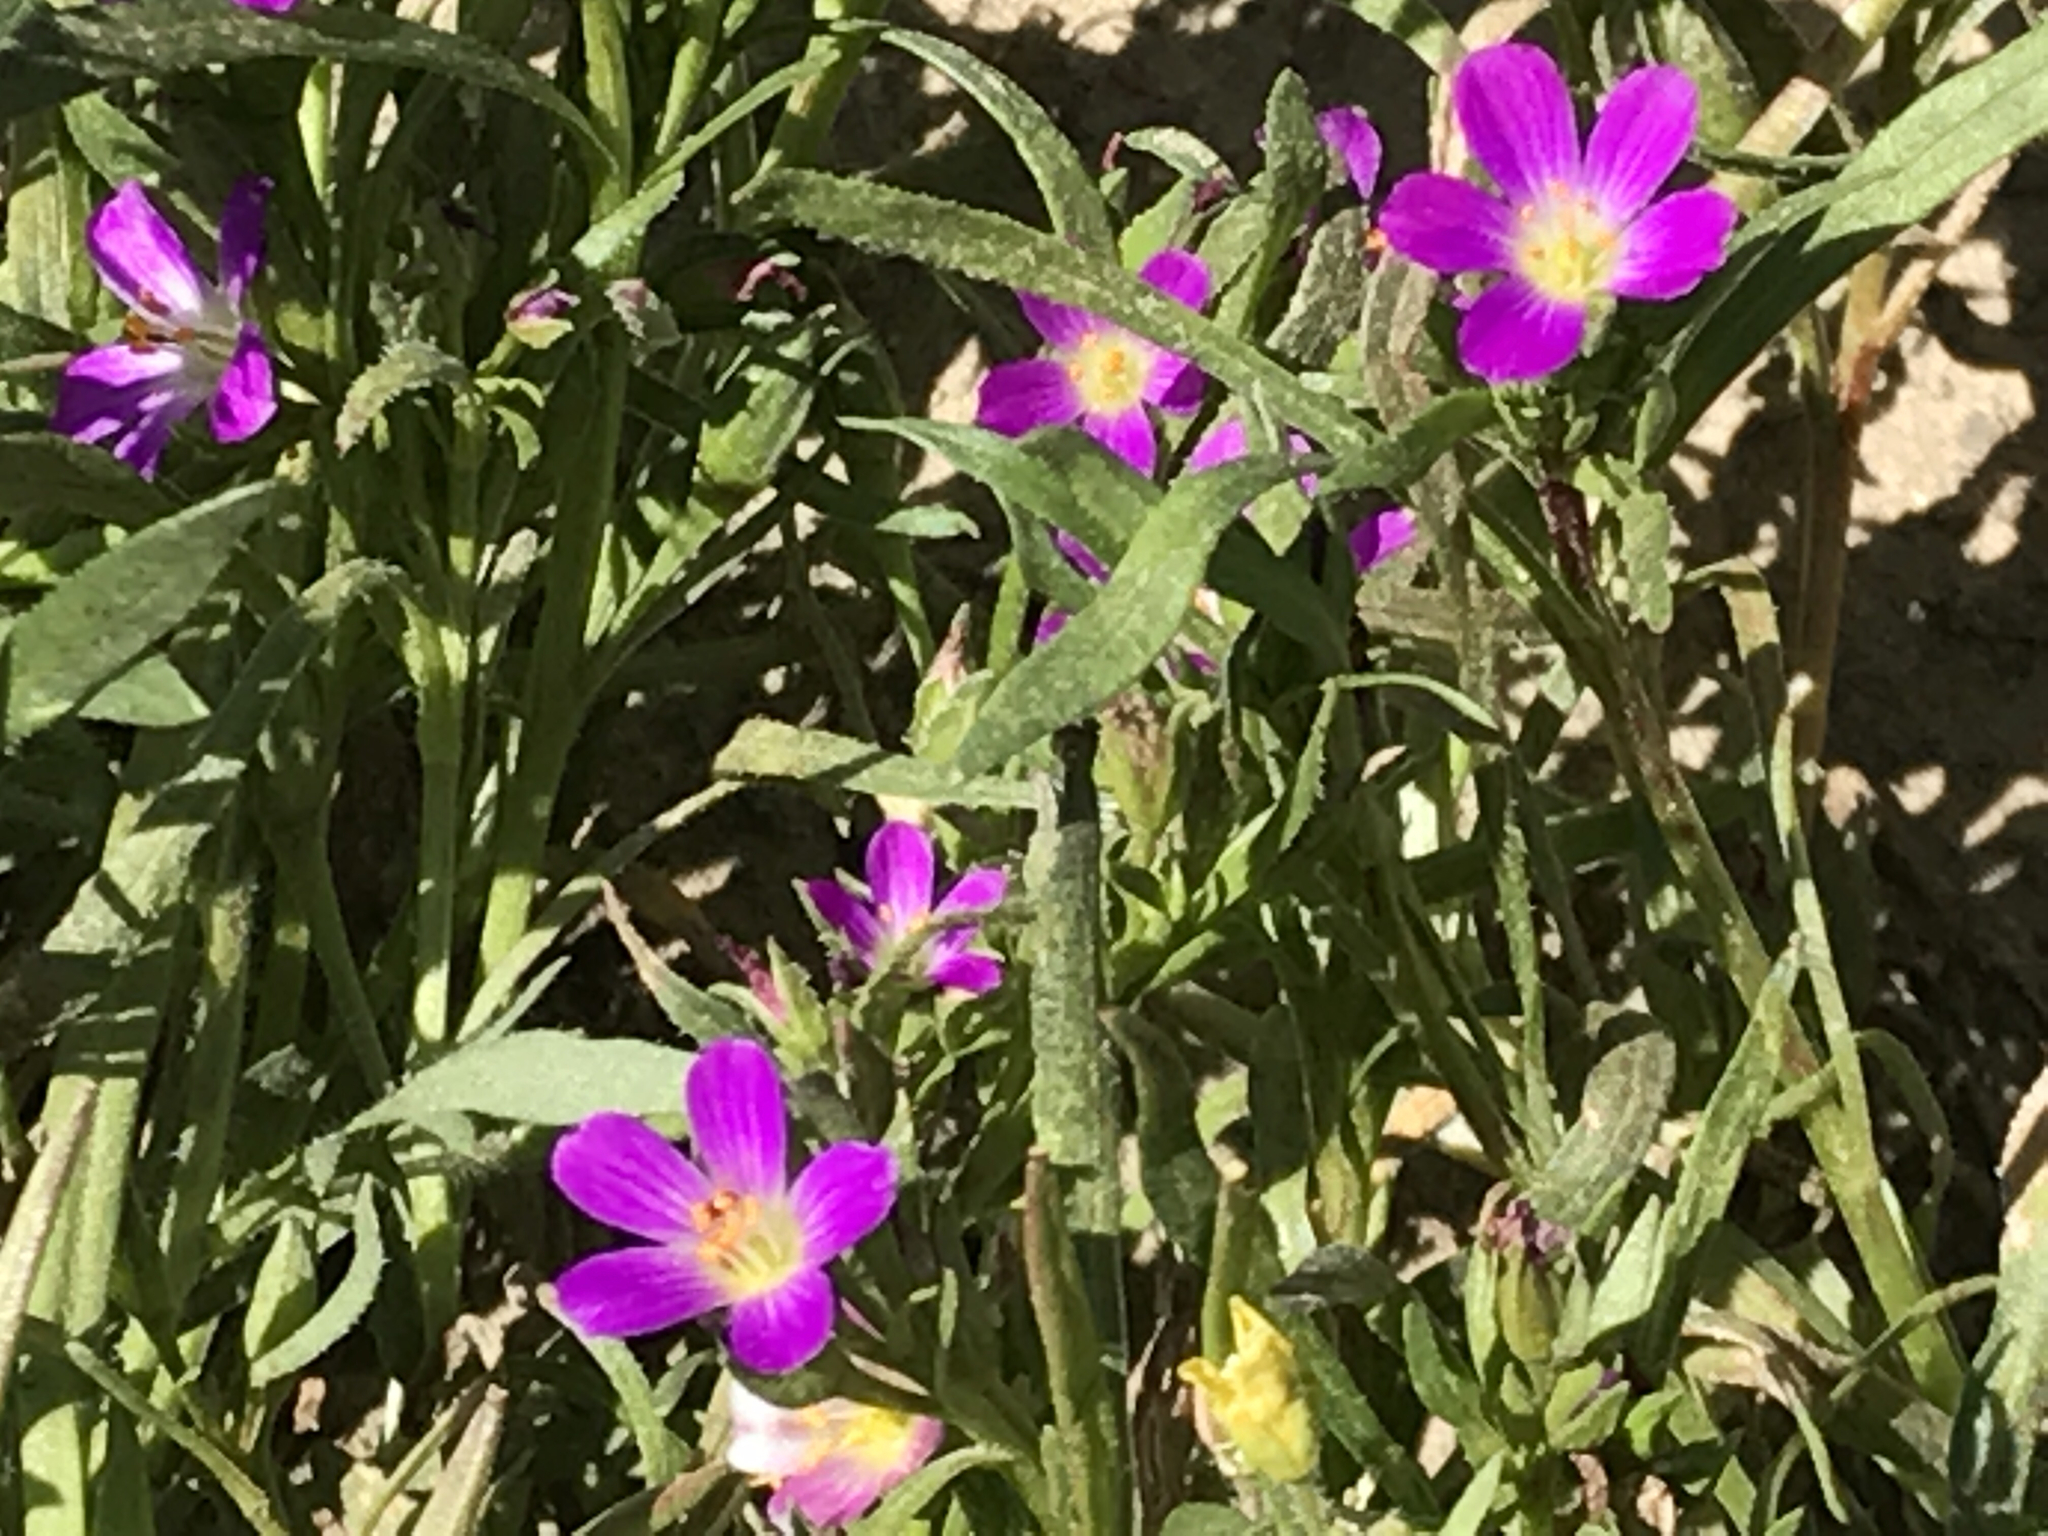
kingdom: Plantae
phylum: Tracheophyta
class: Magnoliopsida
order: Caryophyllales
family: Montiaceae
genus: Calandrinia
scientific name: Calandrinia menziesii
